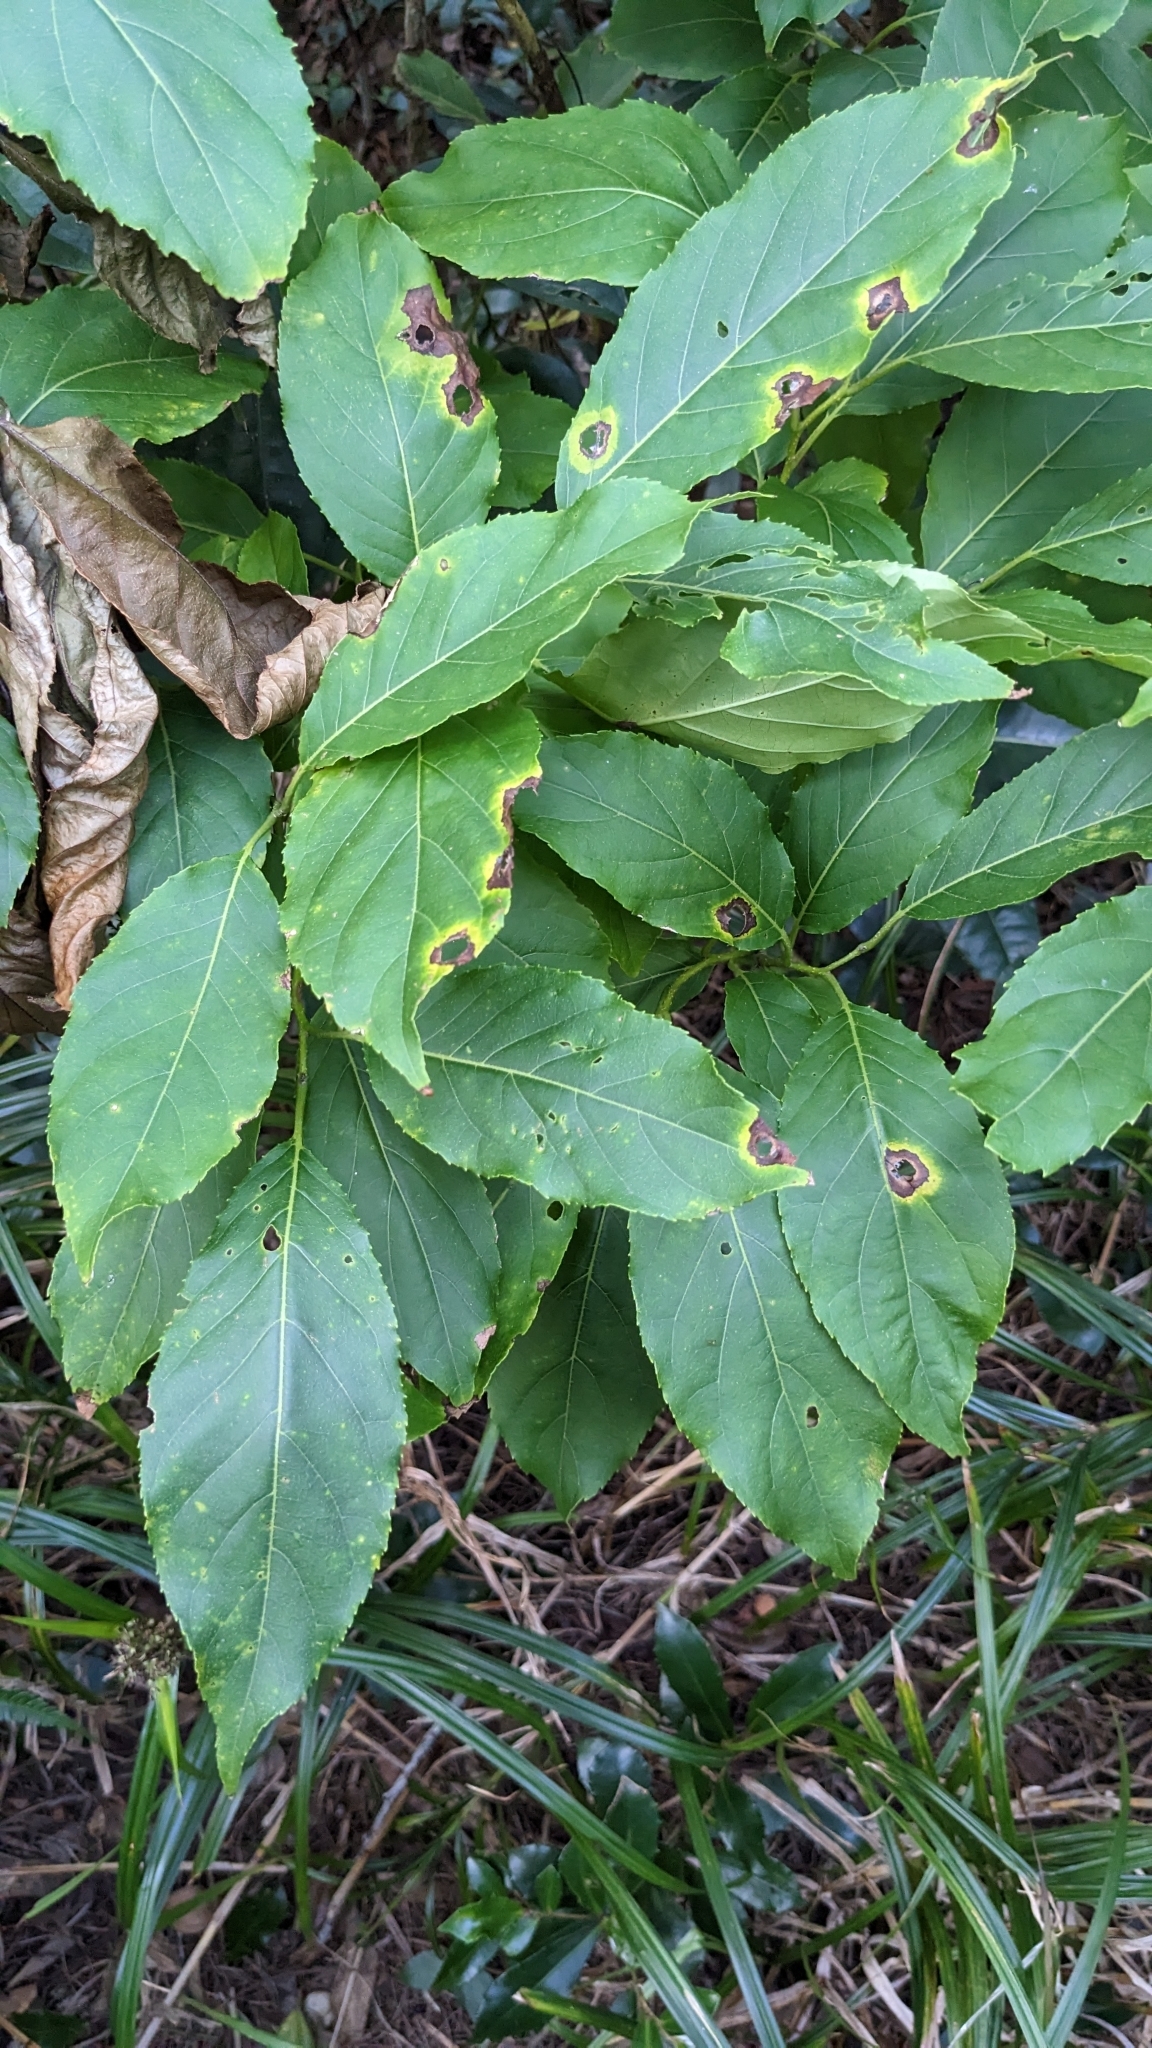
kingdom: Plantae
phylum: Tracheophyta
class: Magnoliopsida
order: Boraginales
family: Ehretiaceae
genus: Ehretia
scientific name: Ehretia acuminata
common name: Kodo wood
